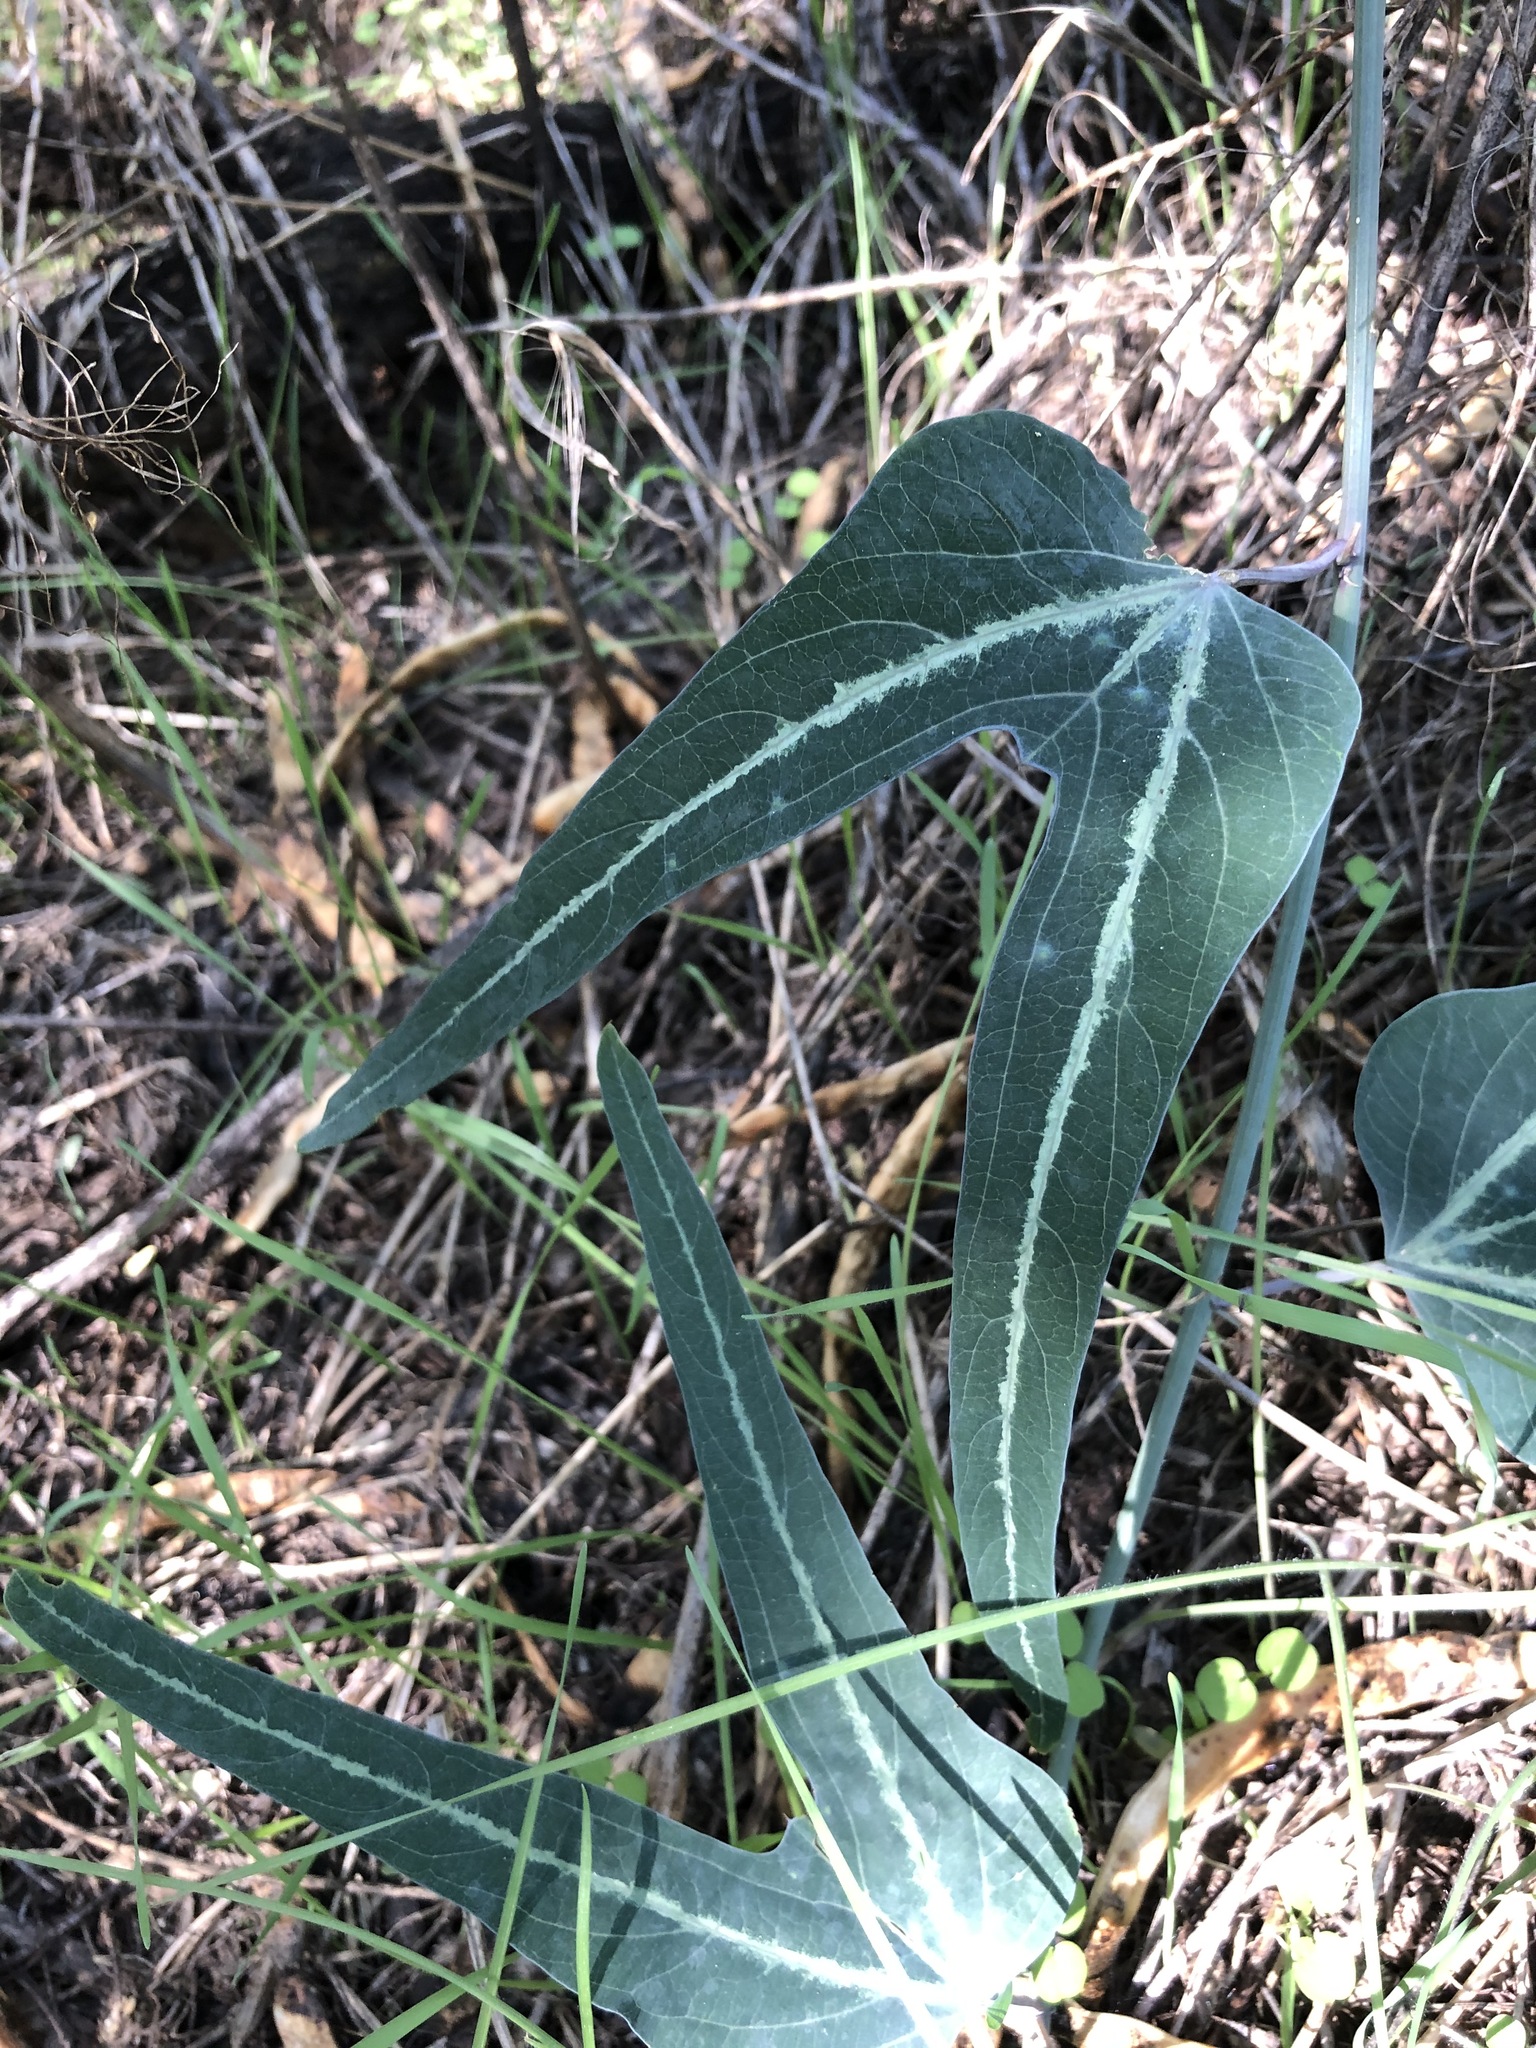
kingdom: Plantae
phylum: Tracheophyta
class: Magnoliopsida
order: Malpighiales
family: Passifloraceae
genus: Passiflora
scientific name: Passiflora mexicana
